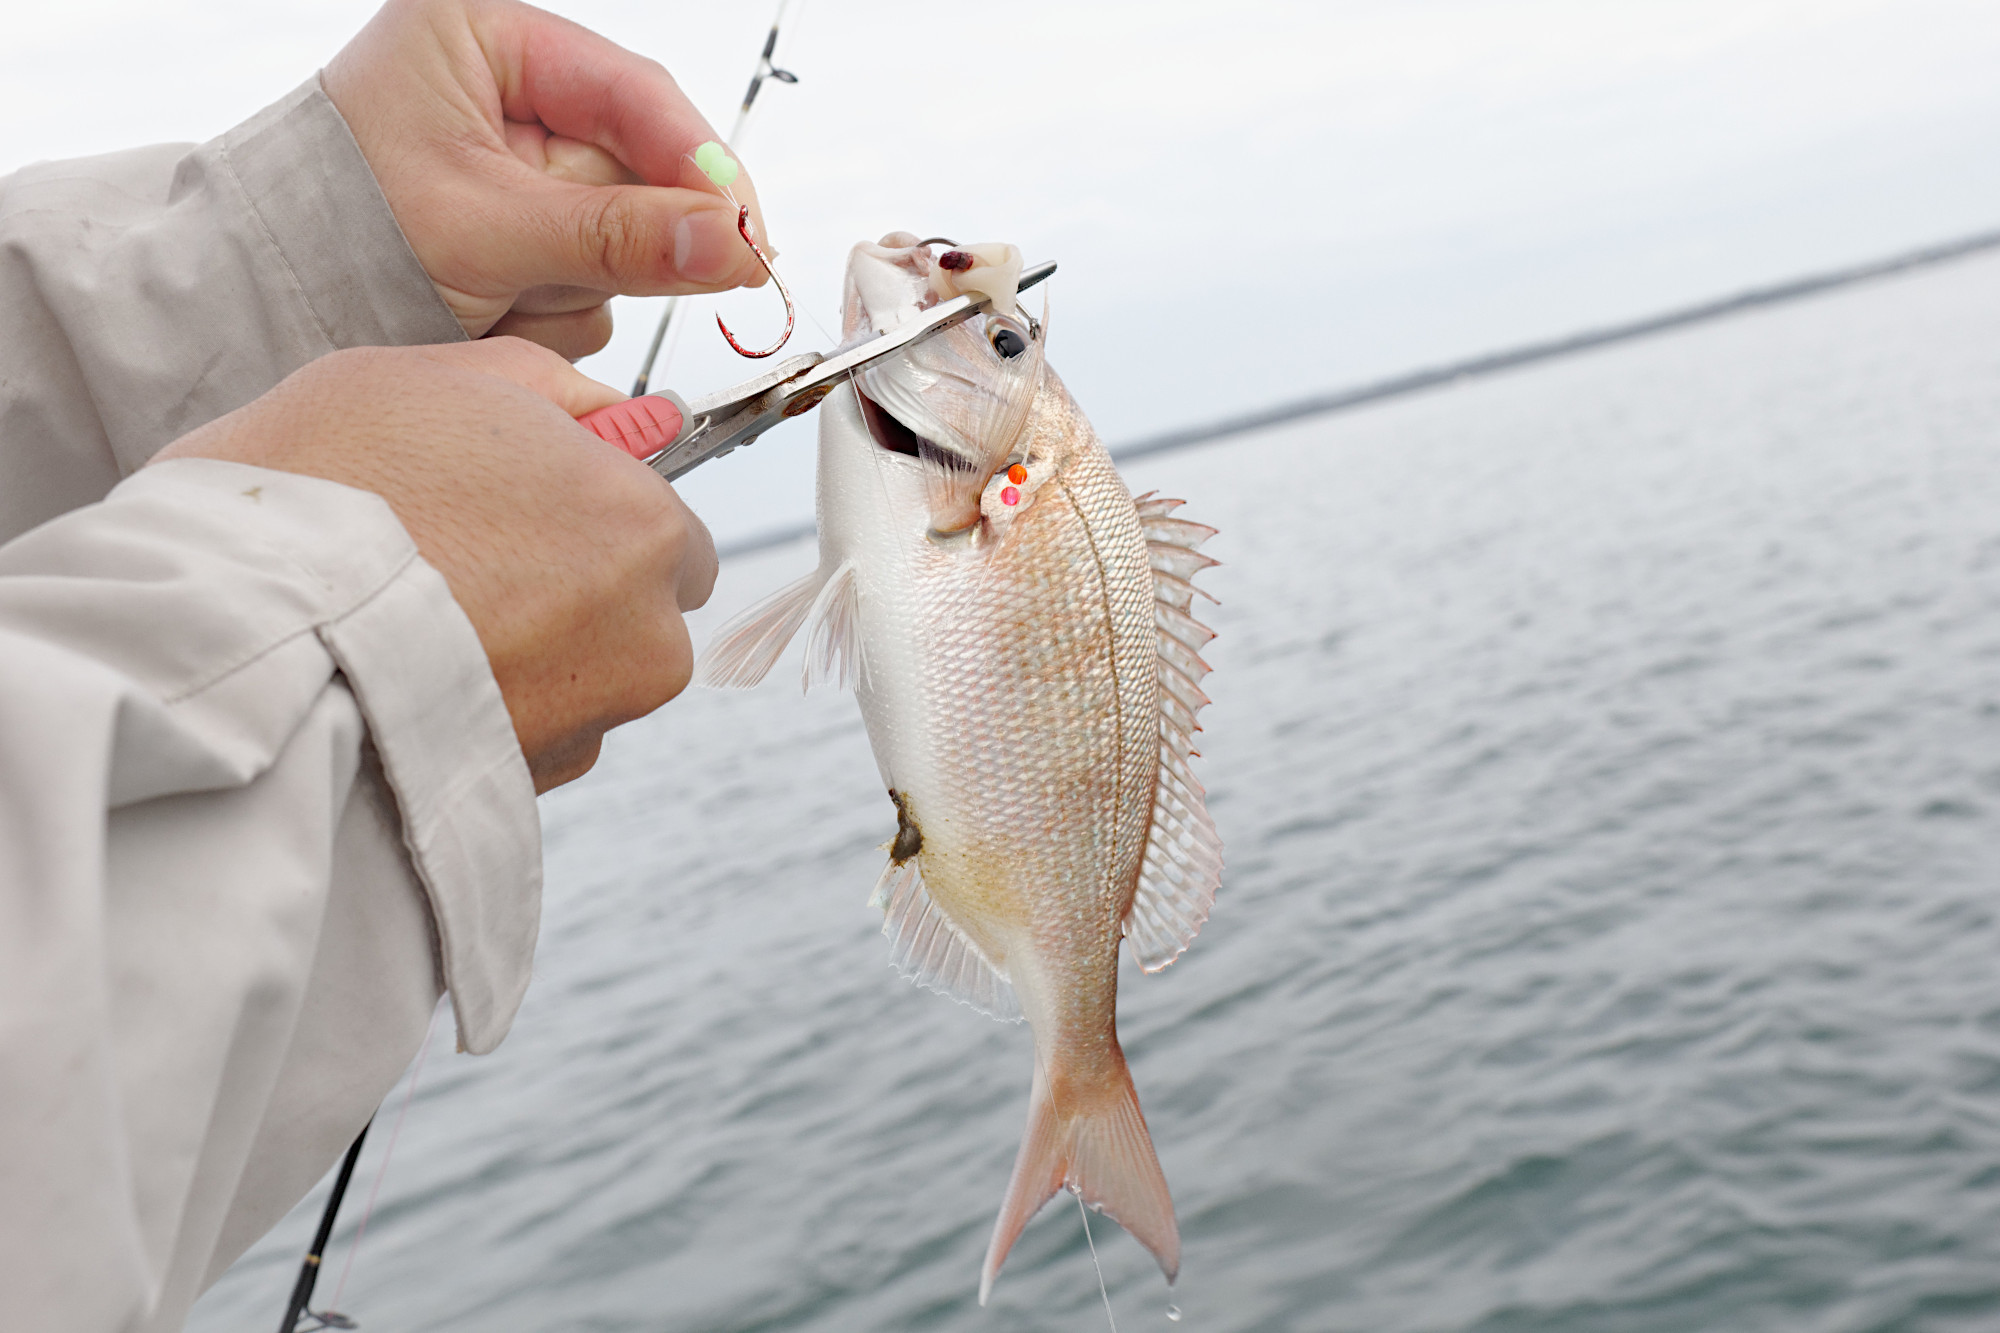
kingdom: Animalia
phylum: Chordata
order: Perciformes
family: Sparidae
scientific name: Sparidae
